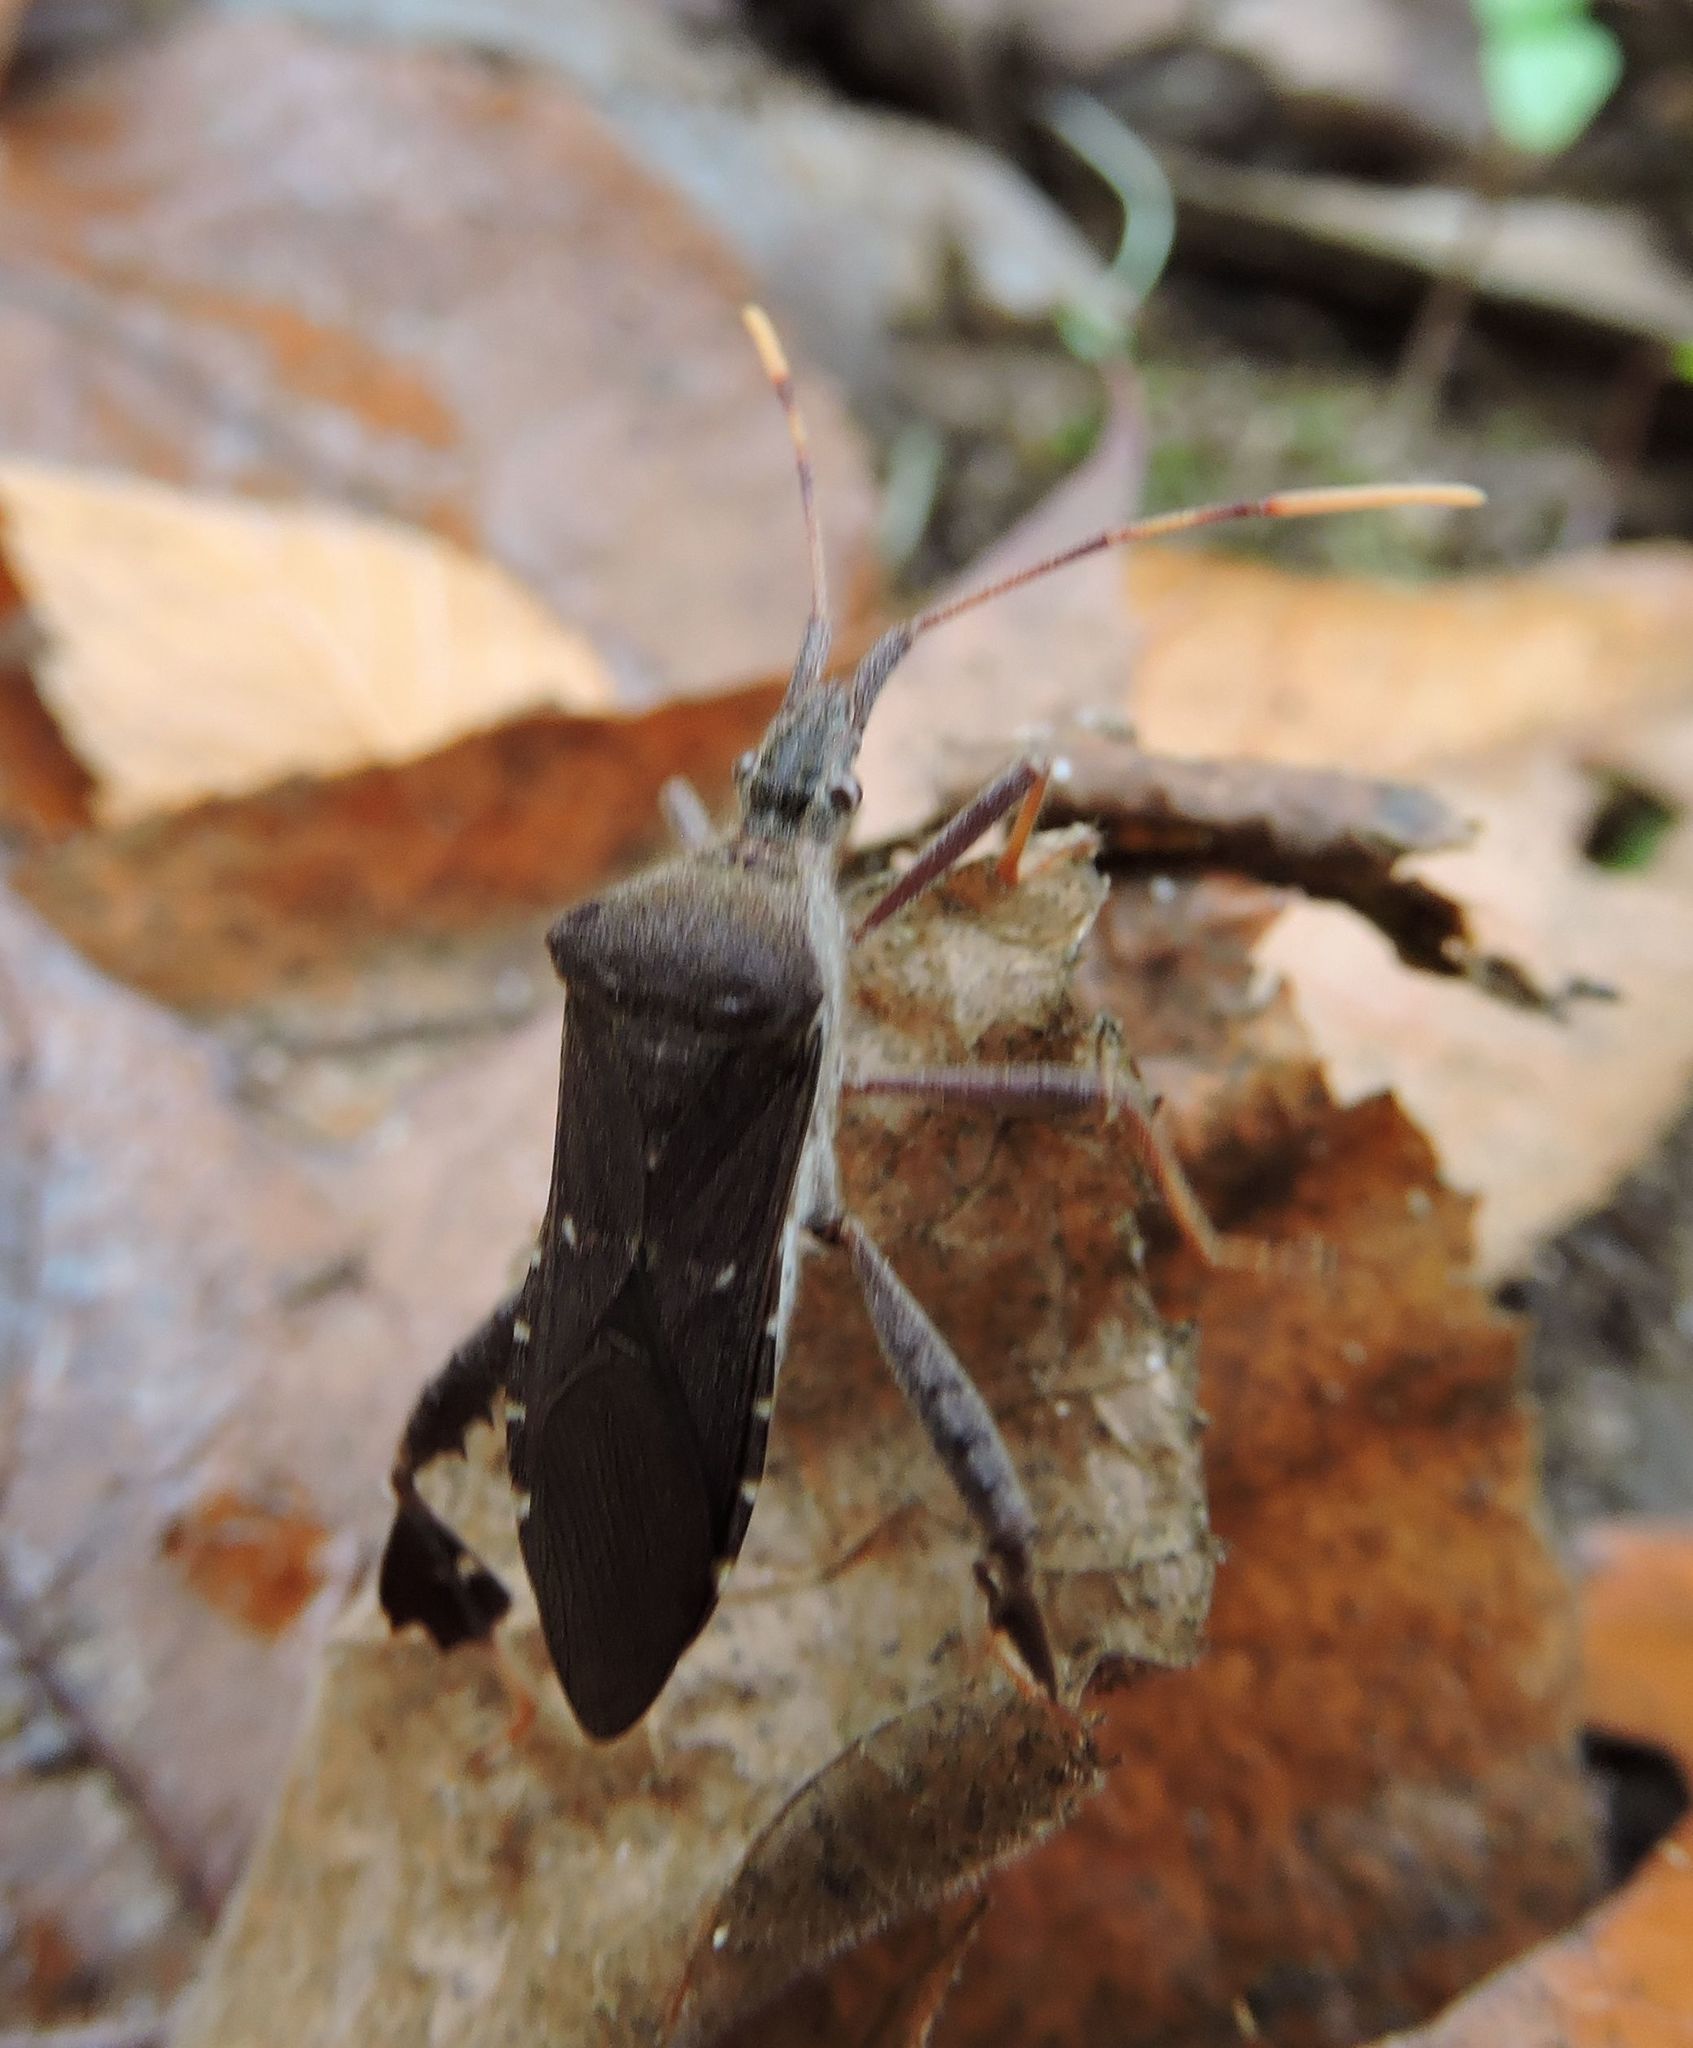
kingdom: Animalia
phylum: Arthropoda
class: Insecta
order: Hemiptera
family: Coreidae
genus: Leptoglossus
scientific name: Leptoglossus oppositus
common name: Northern leaf-footed bug
